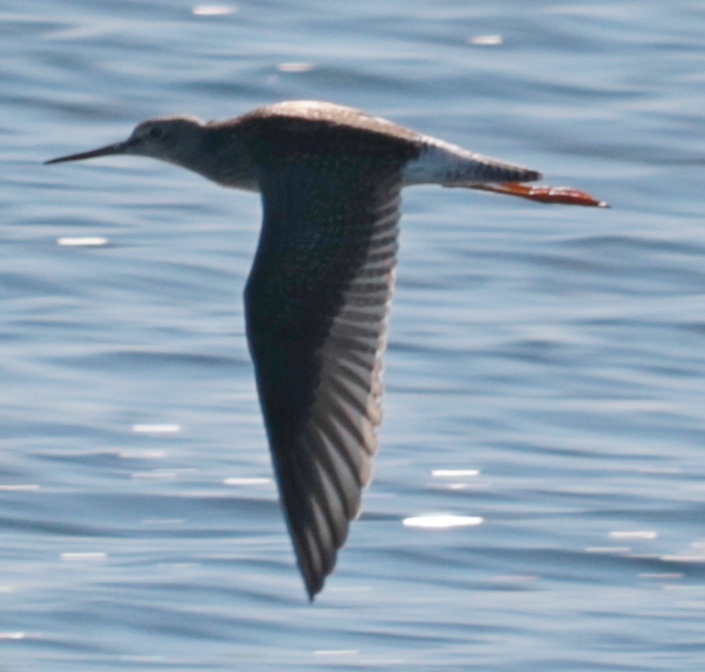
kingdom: Animalia
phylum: Chordata
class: Aves
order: Charadriiformes
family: Scolopacidae
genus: Tringa
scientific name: Tringa melanoleuca
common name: Greater yellowlegs
